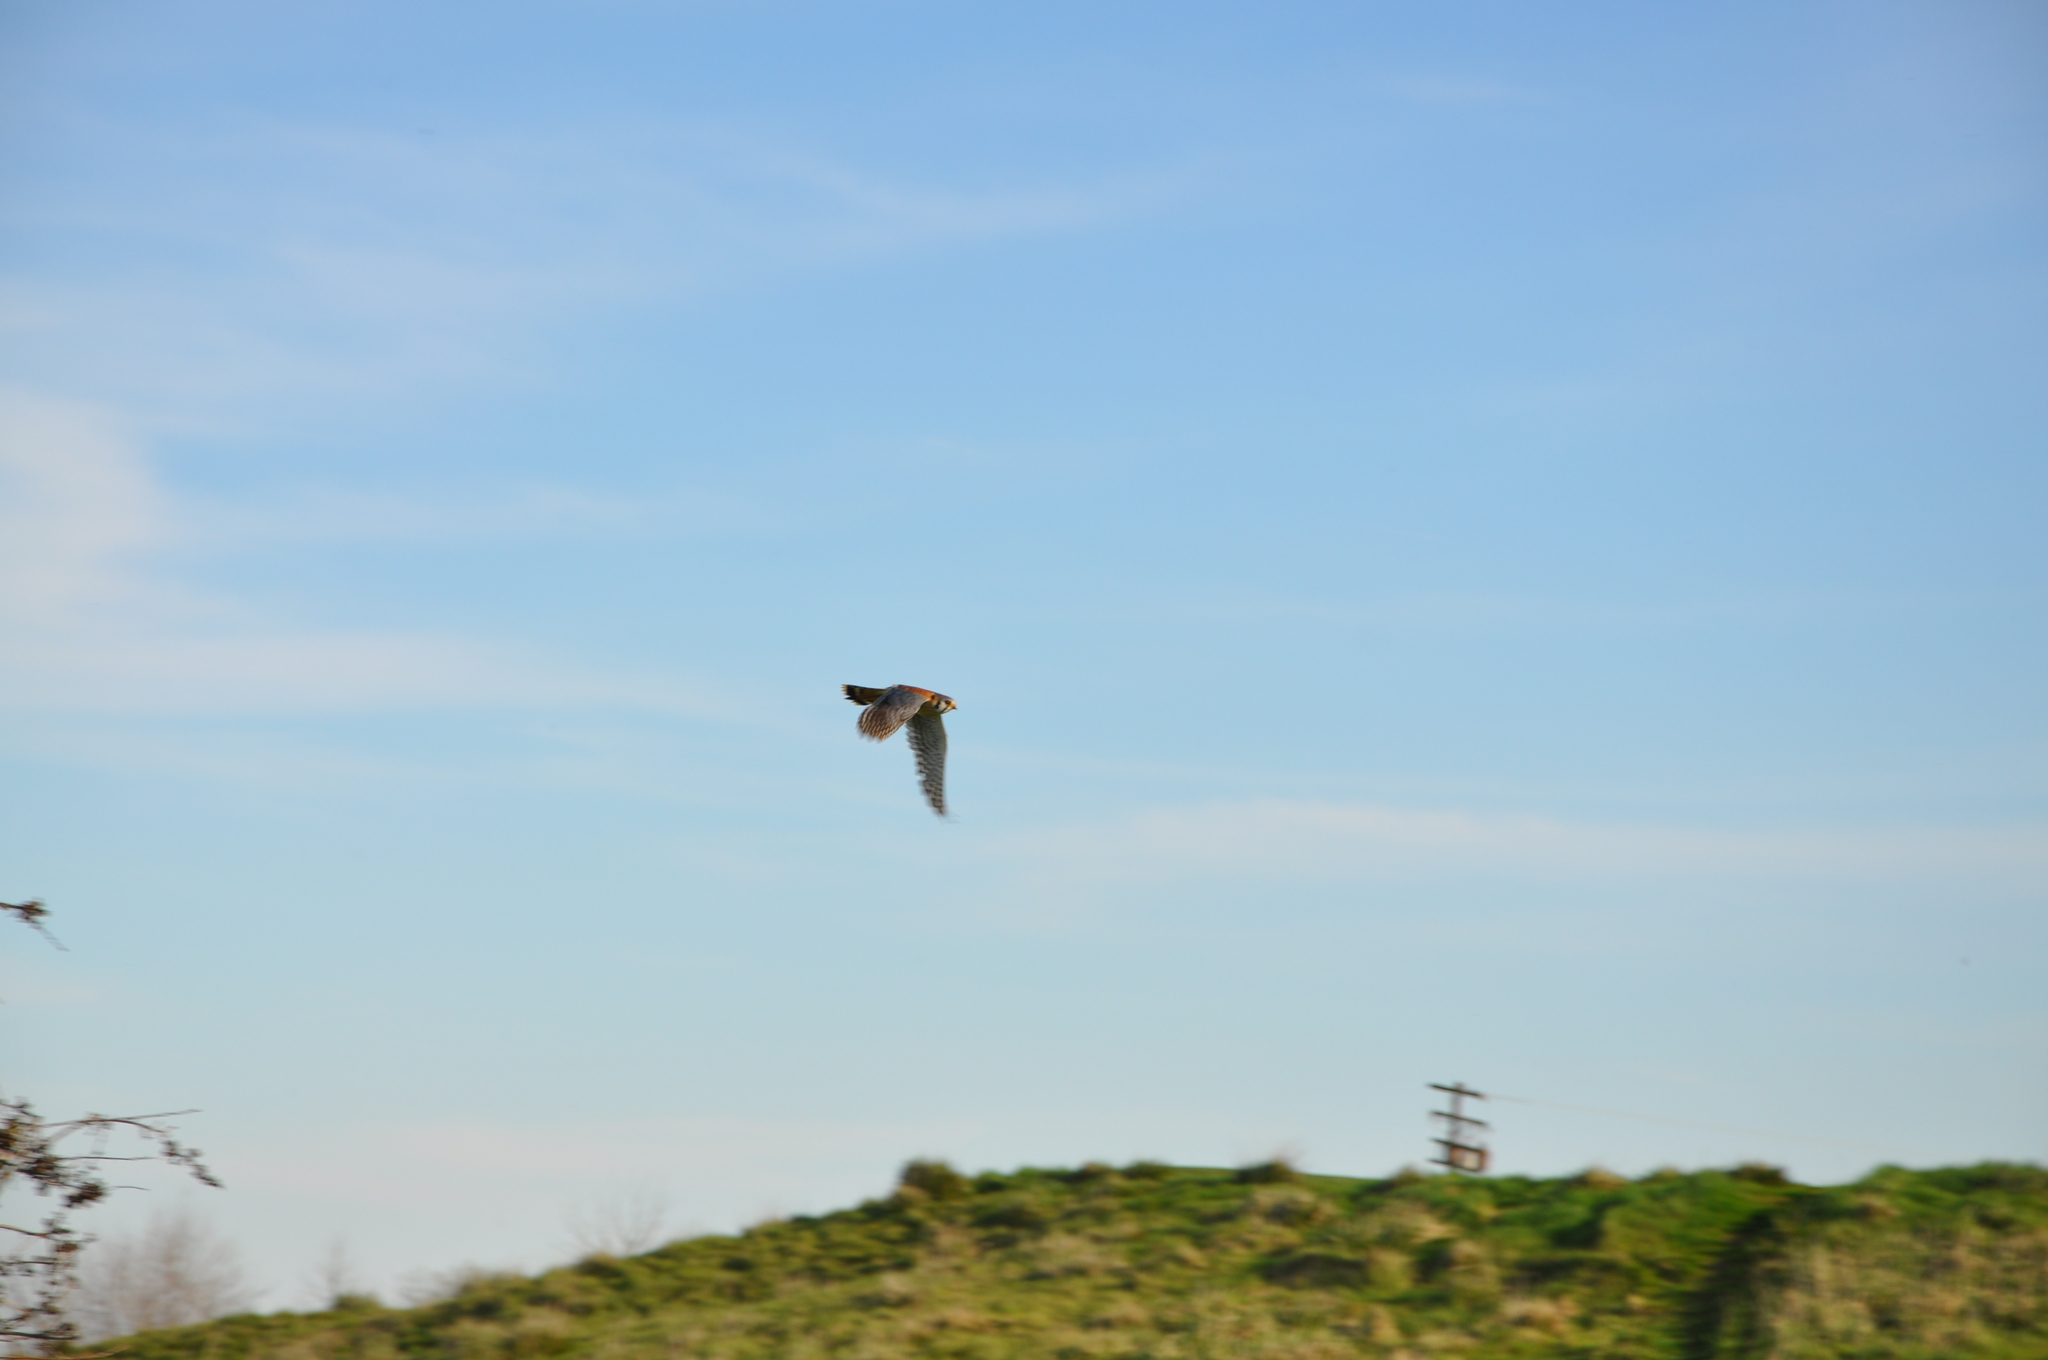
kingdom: Animalia
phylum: Chordata
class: Aves
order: Falconiformes
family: Falconidae
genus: Falco
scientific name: Falco sparverius
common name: American kestrel
